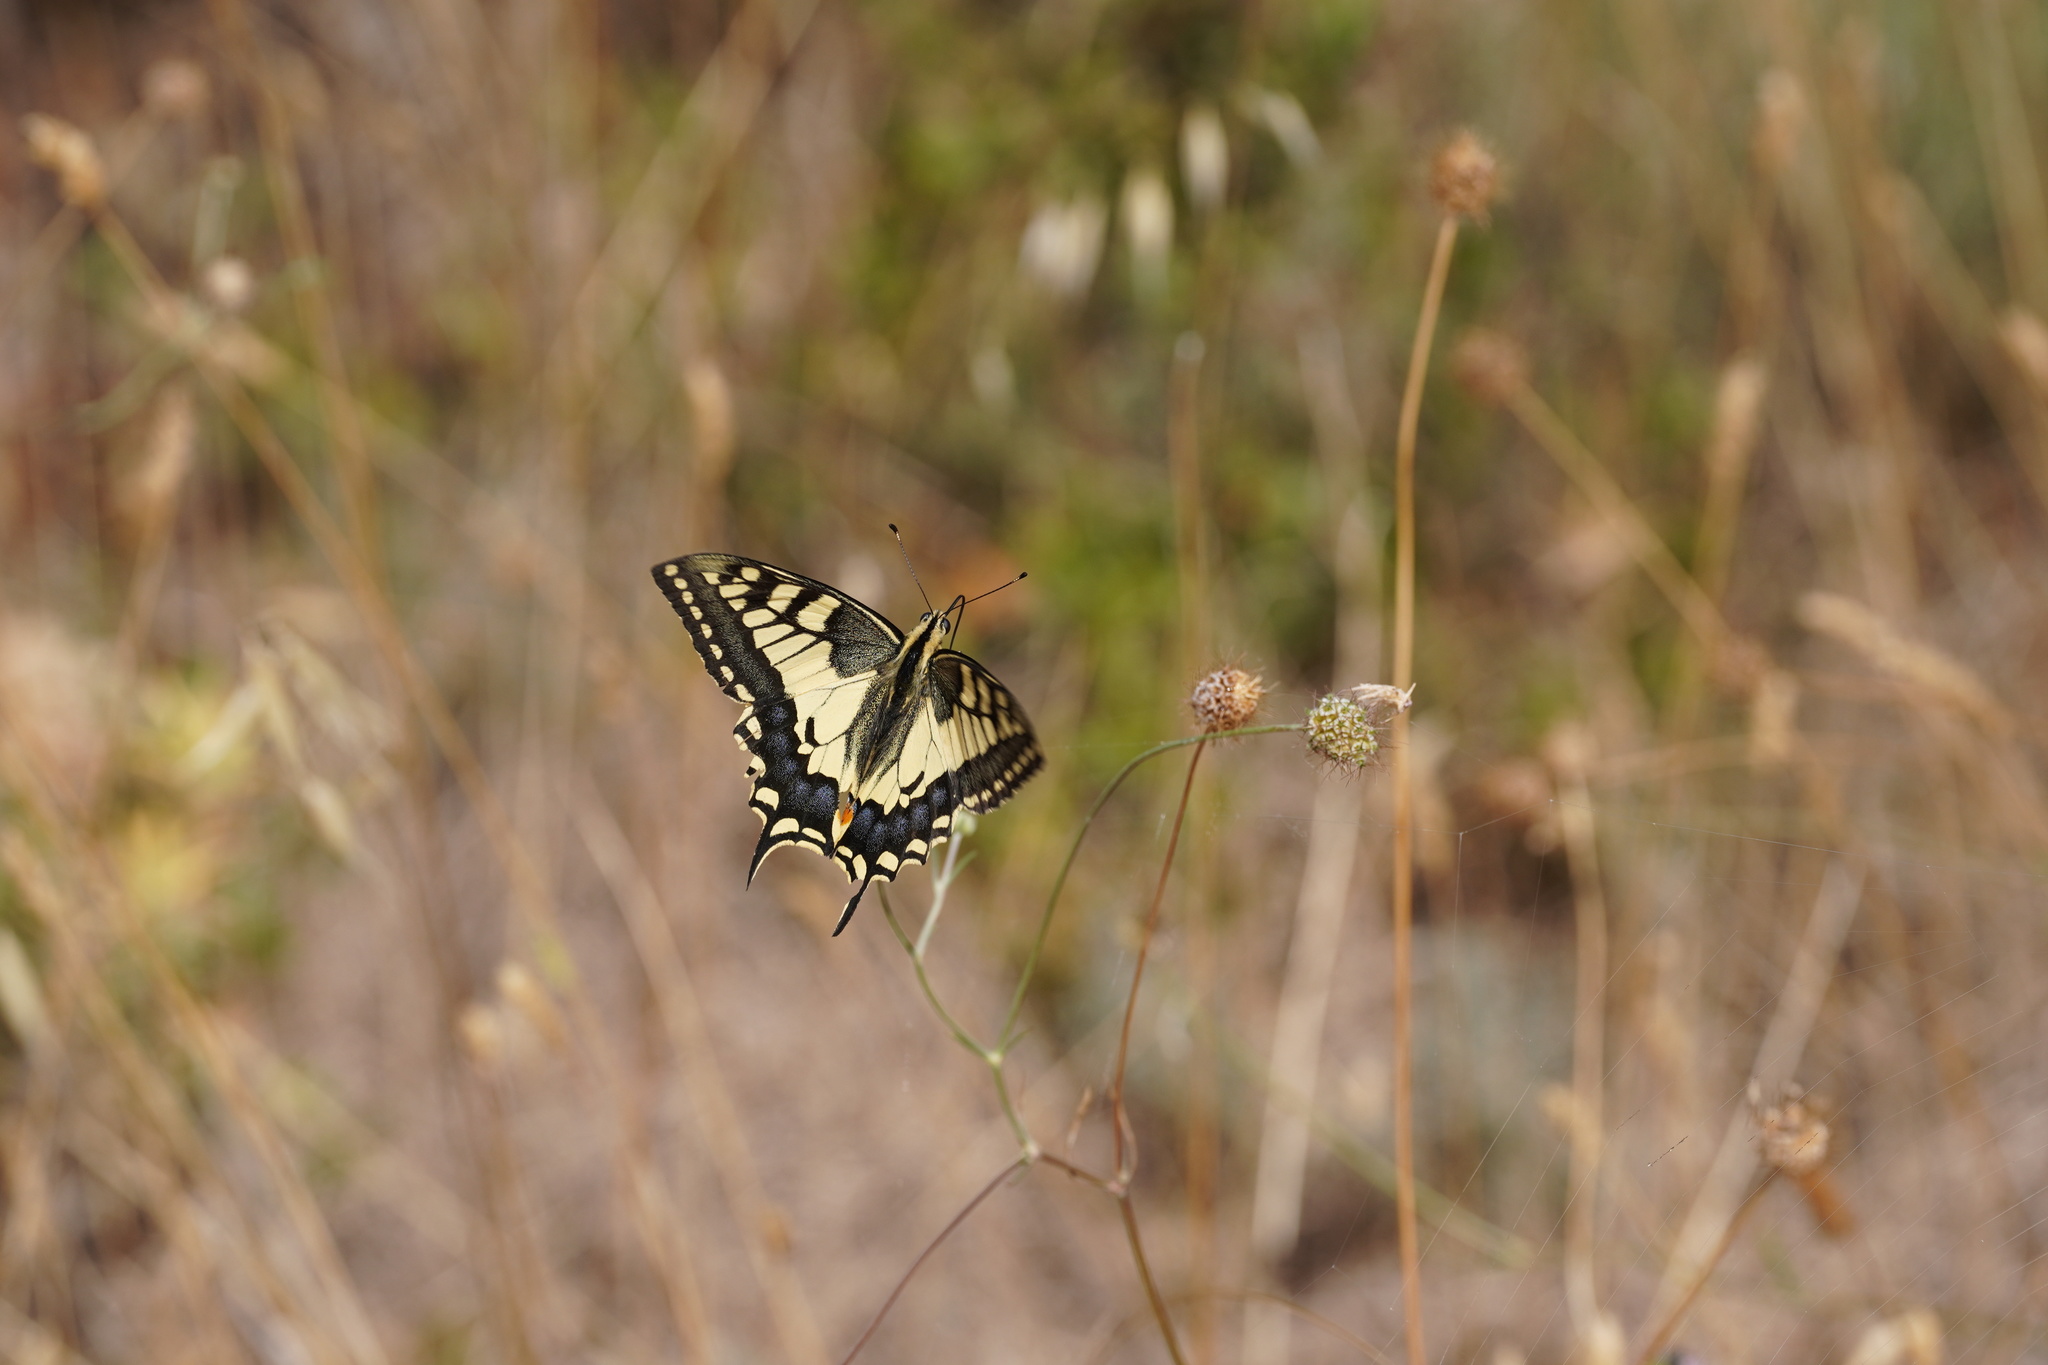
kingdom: Animalia
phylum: Arthropoda
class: Insecta
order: Lepidoptera
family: Papilionidae
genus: Papilio
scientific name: Papilio machaon
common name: Swallowtail
